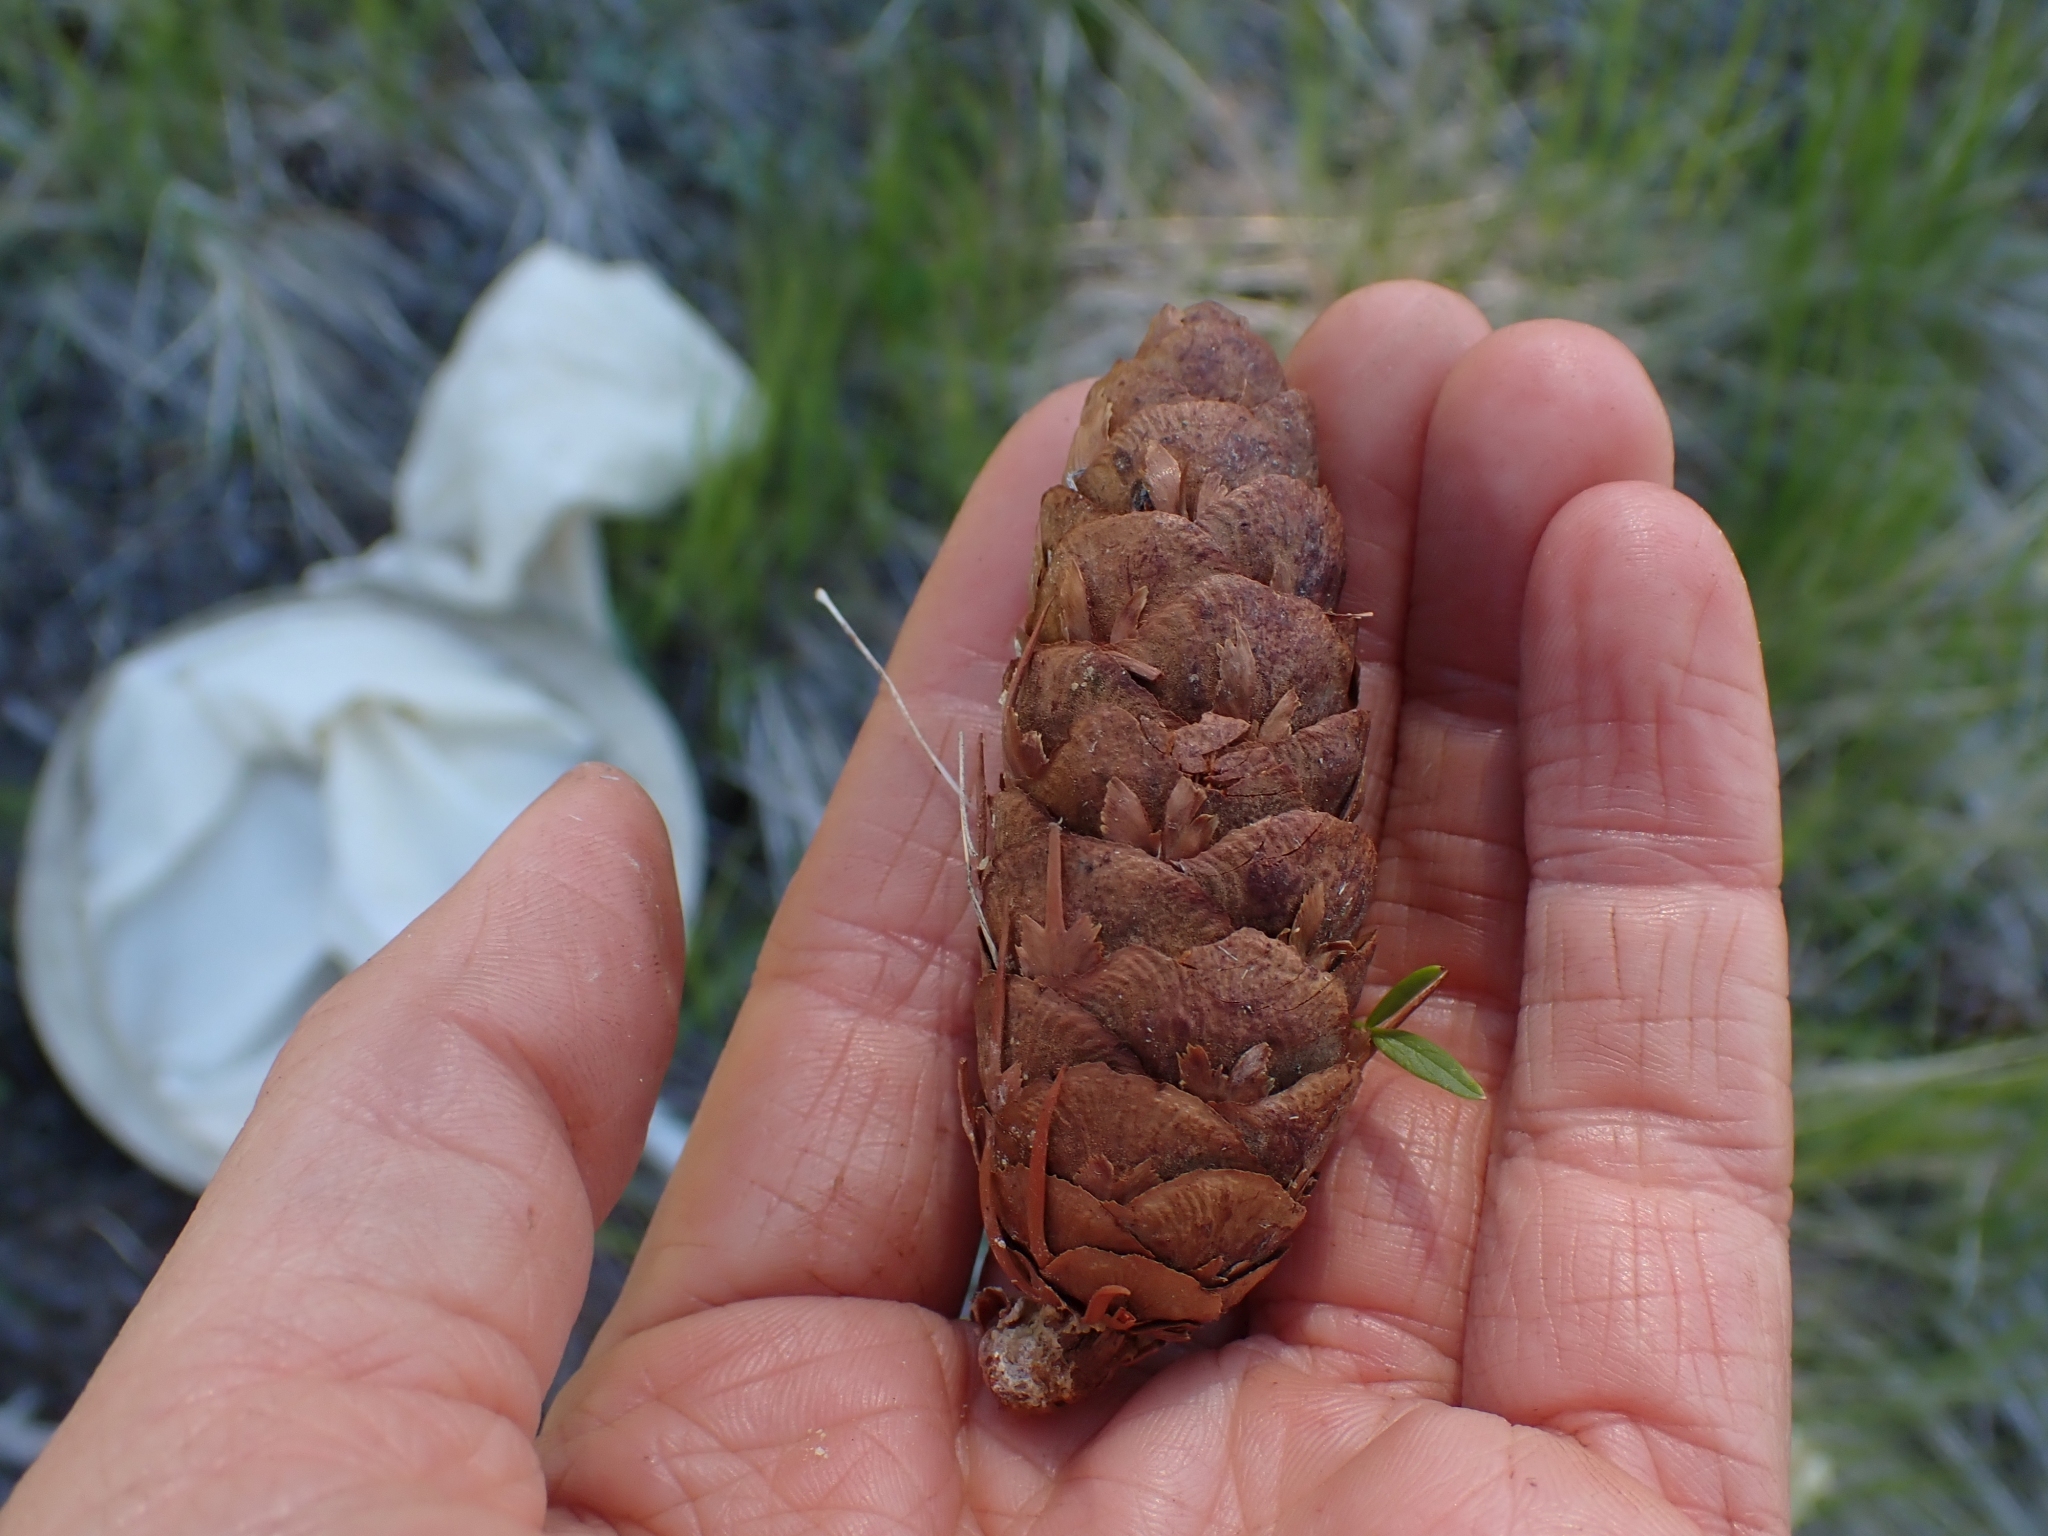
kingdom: Plantae
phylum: Tracheophyta
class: Pinopsida
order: Pinales
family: Pinaceae
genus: Pseudotsuga
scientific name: Pseudotsuga menziesii
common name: Douglas fir
